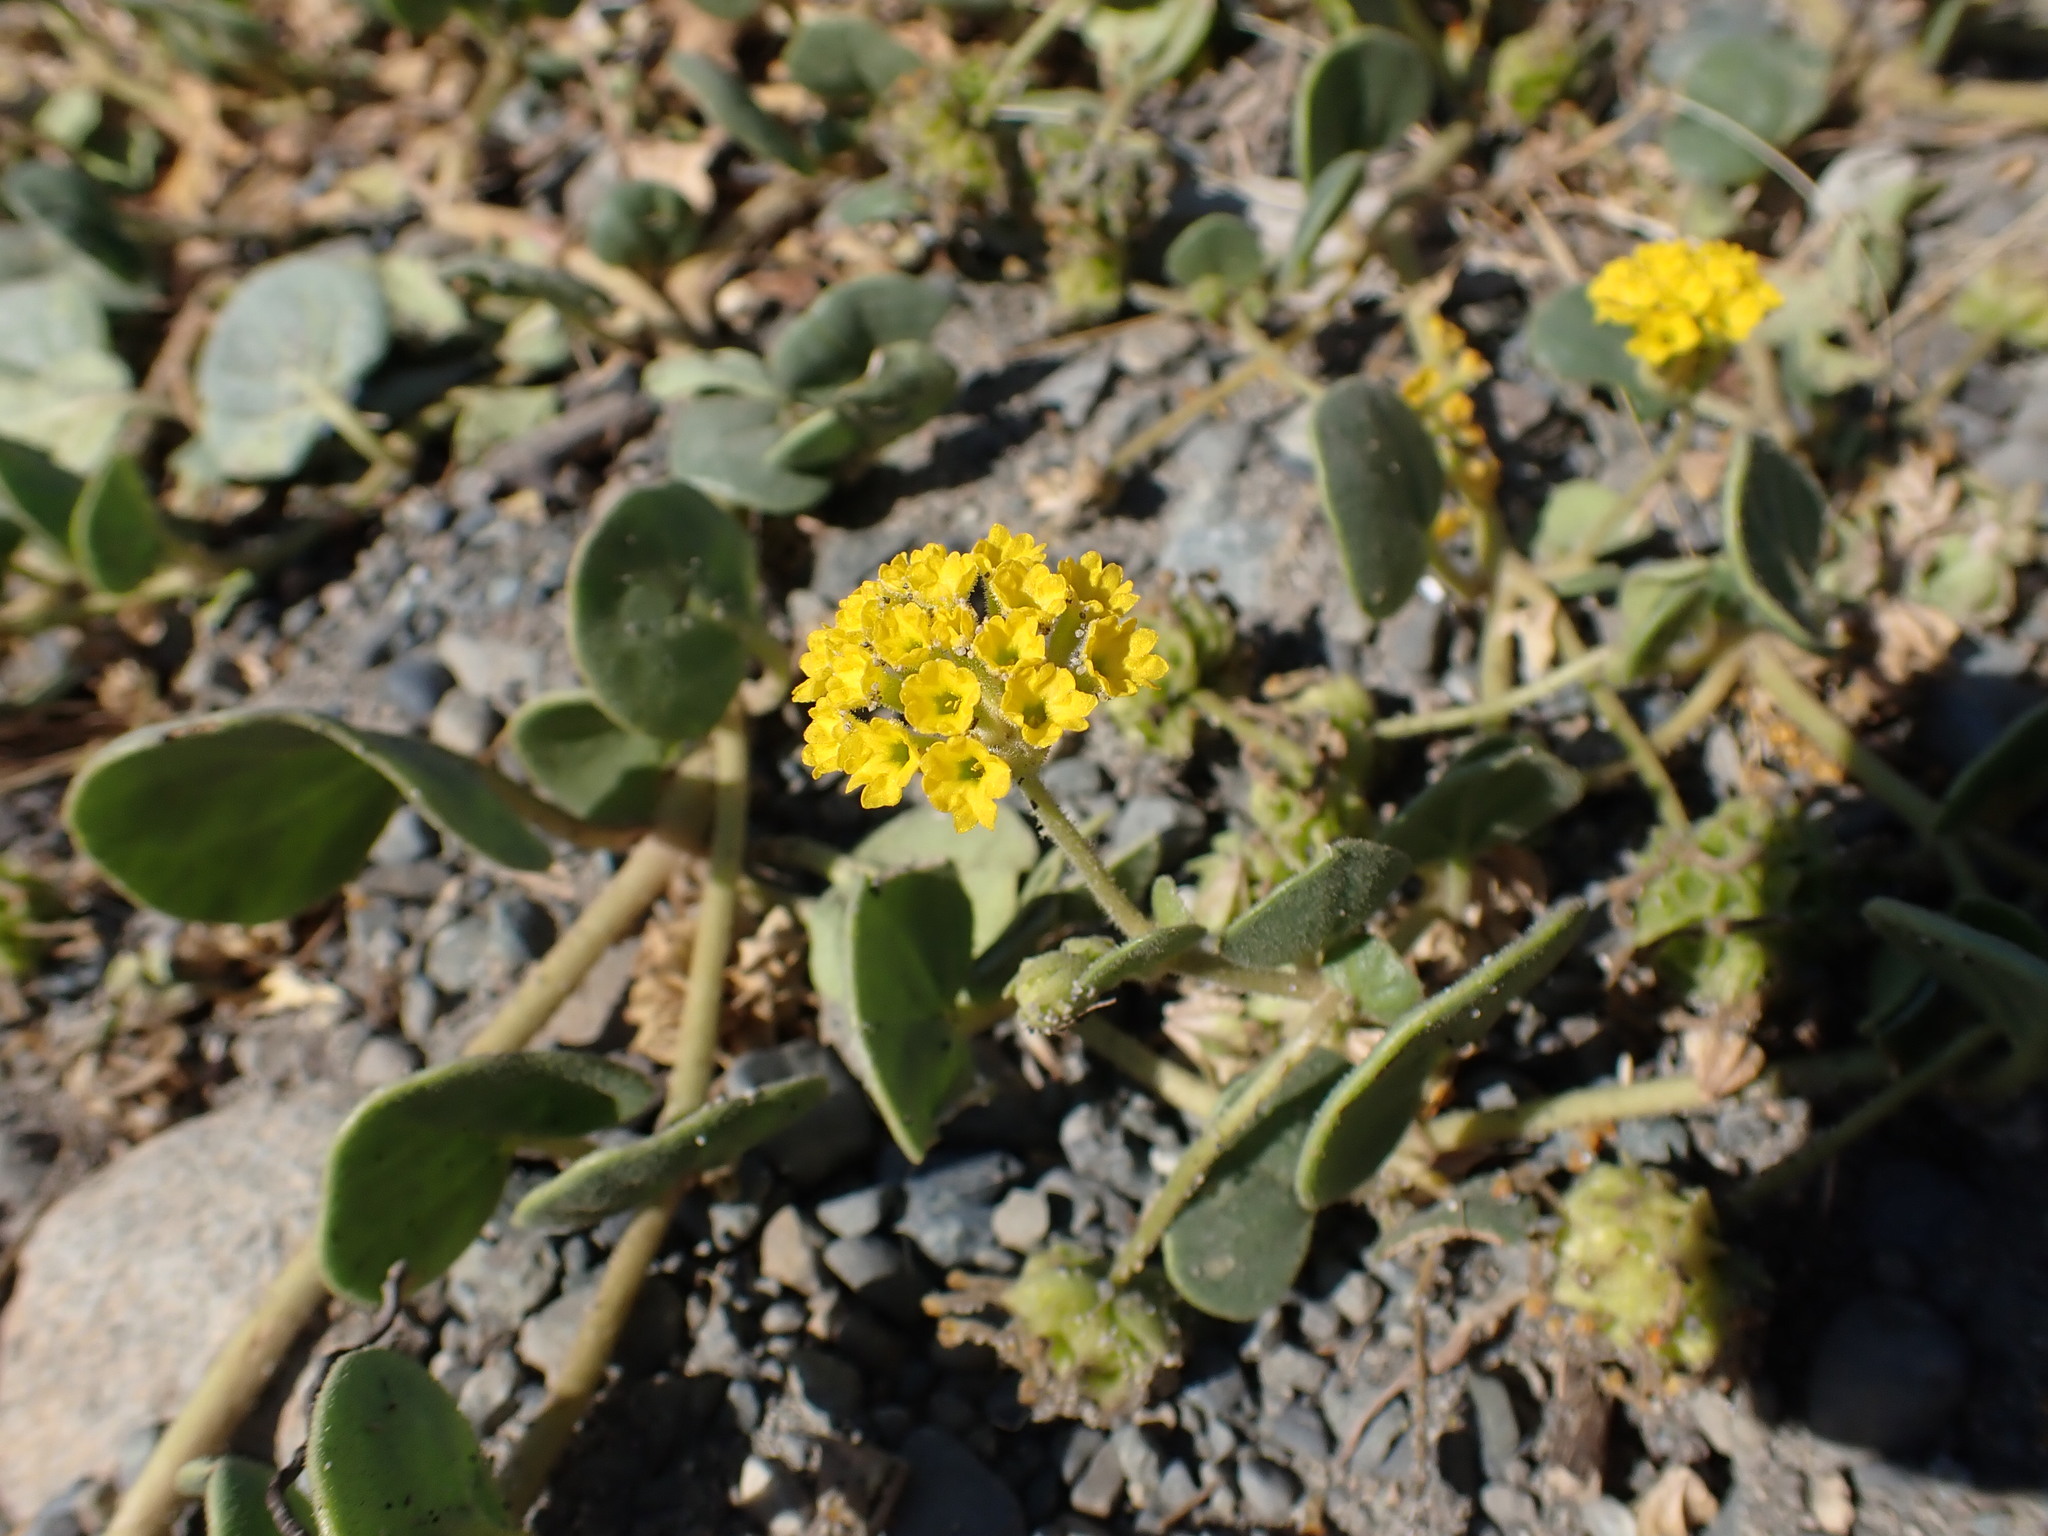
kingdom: Plantae
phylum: Tracheophyta
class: Magnoliopsida
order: Caryophyllales
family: Nyctaginaceae
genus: Abronia
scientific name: Abronia latifolia
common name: Yellow sand-verbena
